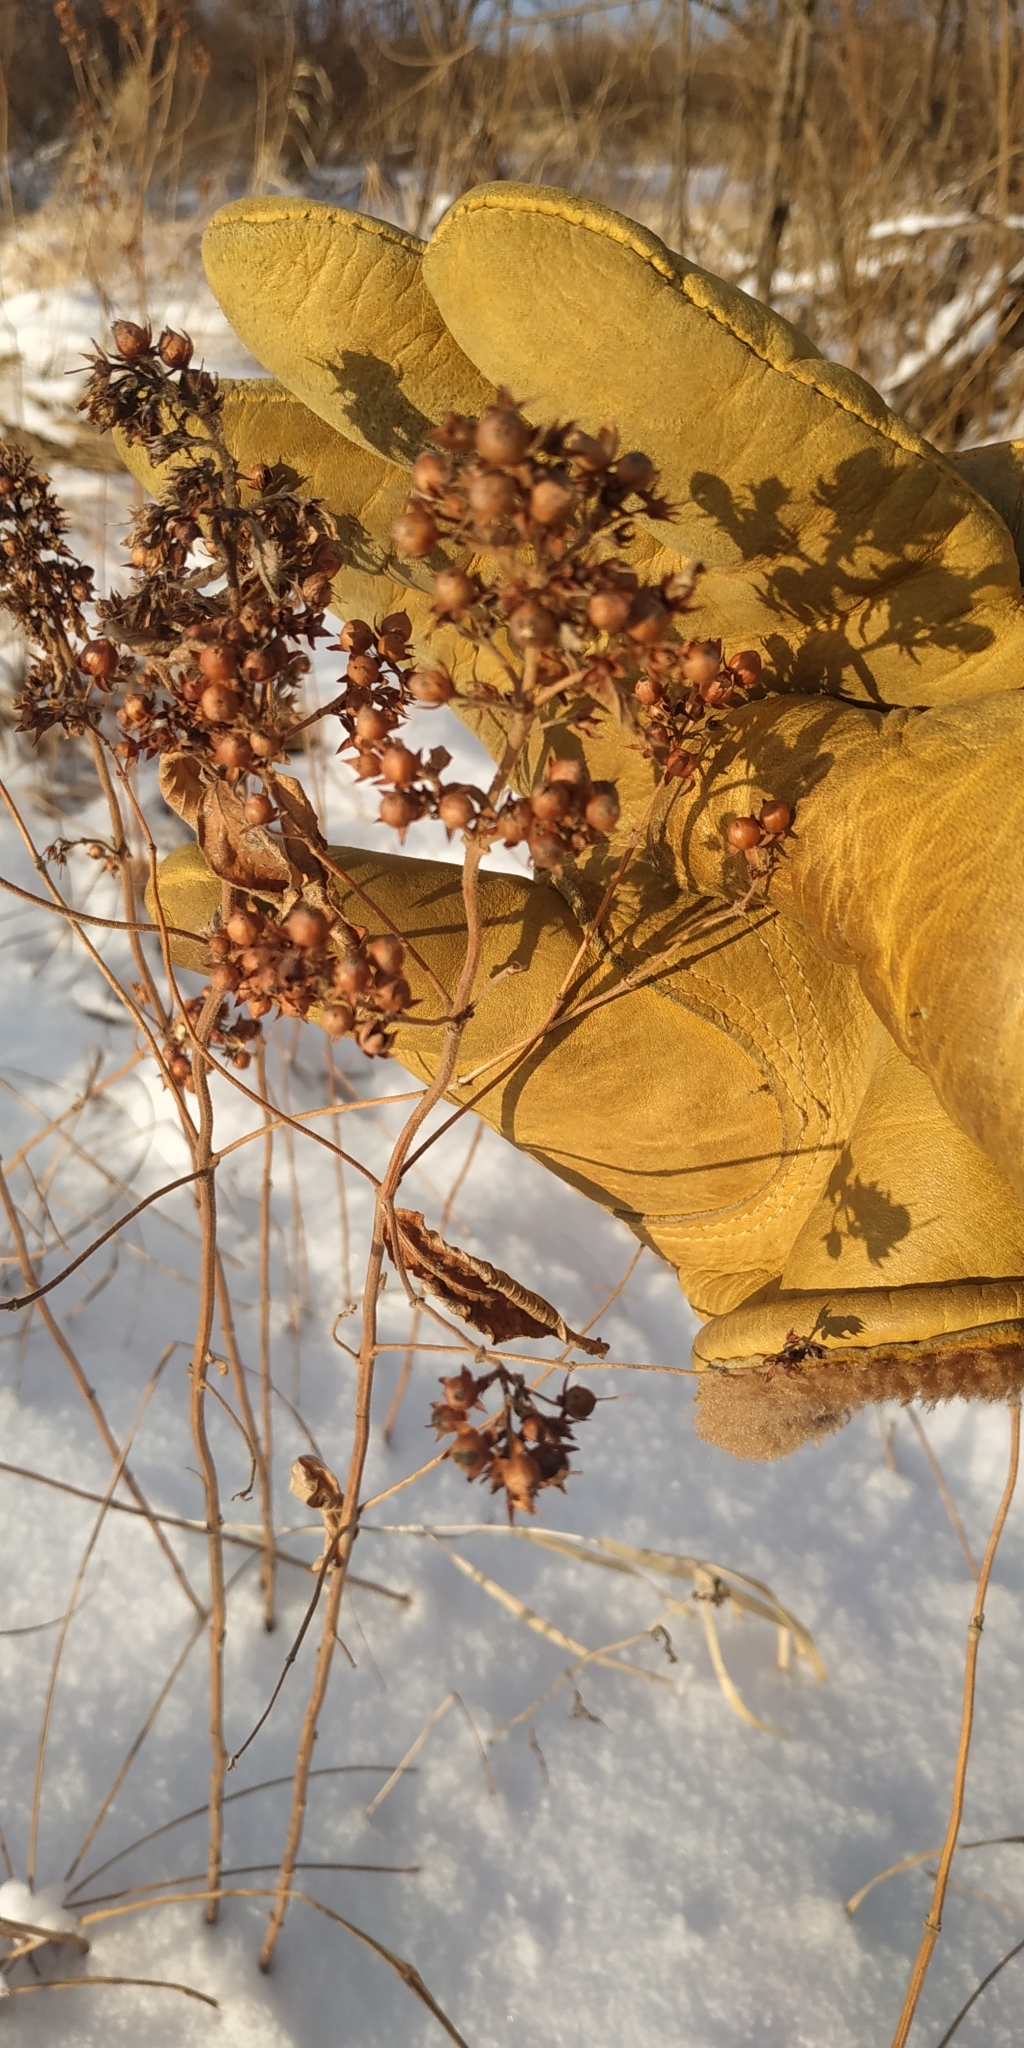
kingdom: Plantae
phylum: Tracheophyta
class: Magnoliopsida
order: Ericales
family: Primulaceae
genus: Lysimachia
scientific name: Lysimachia vulgaris
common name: Yellow loosestrife
